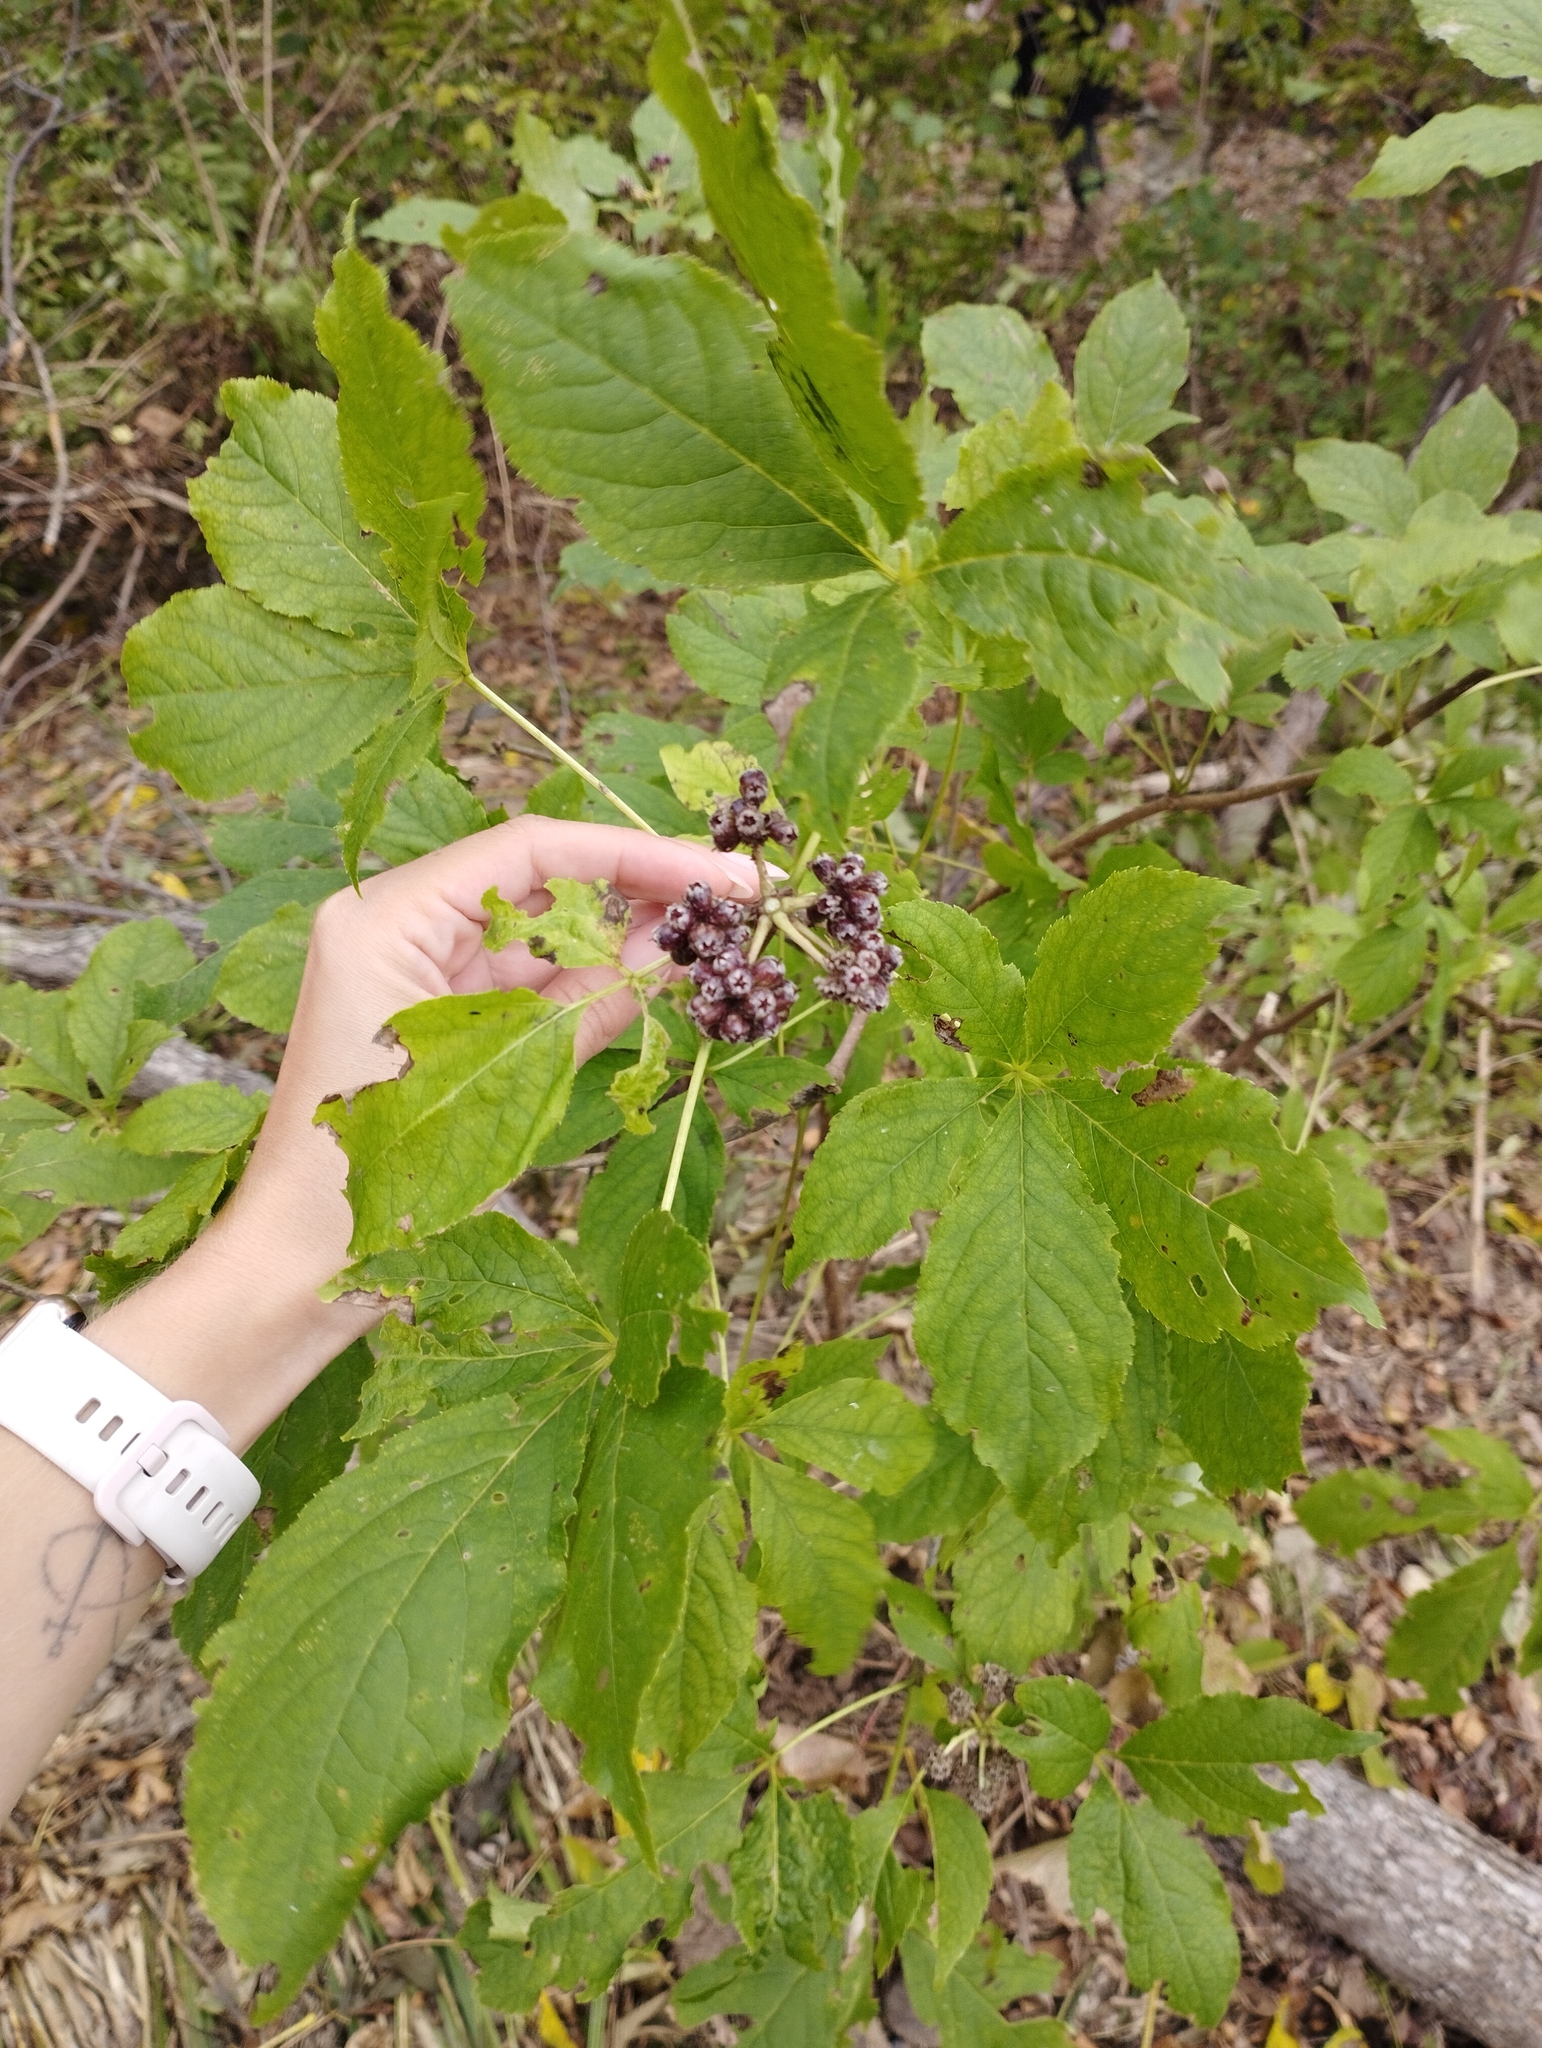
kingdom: Plantae
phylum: Tracheophyta
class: Magnoliopsida
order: Apiales
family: Araliaceae
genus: Eleutherococcus
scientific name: Eleutherococcus sessiliflorus
